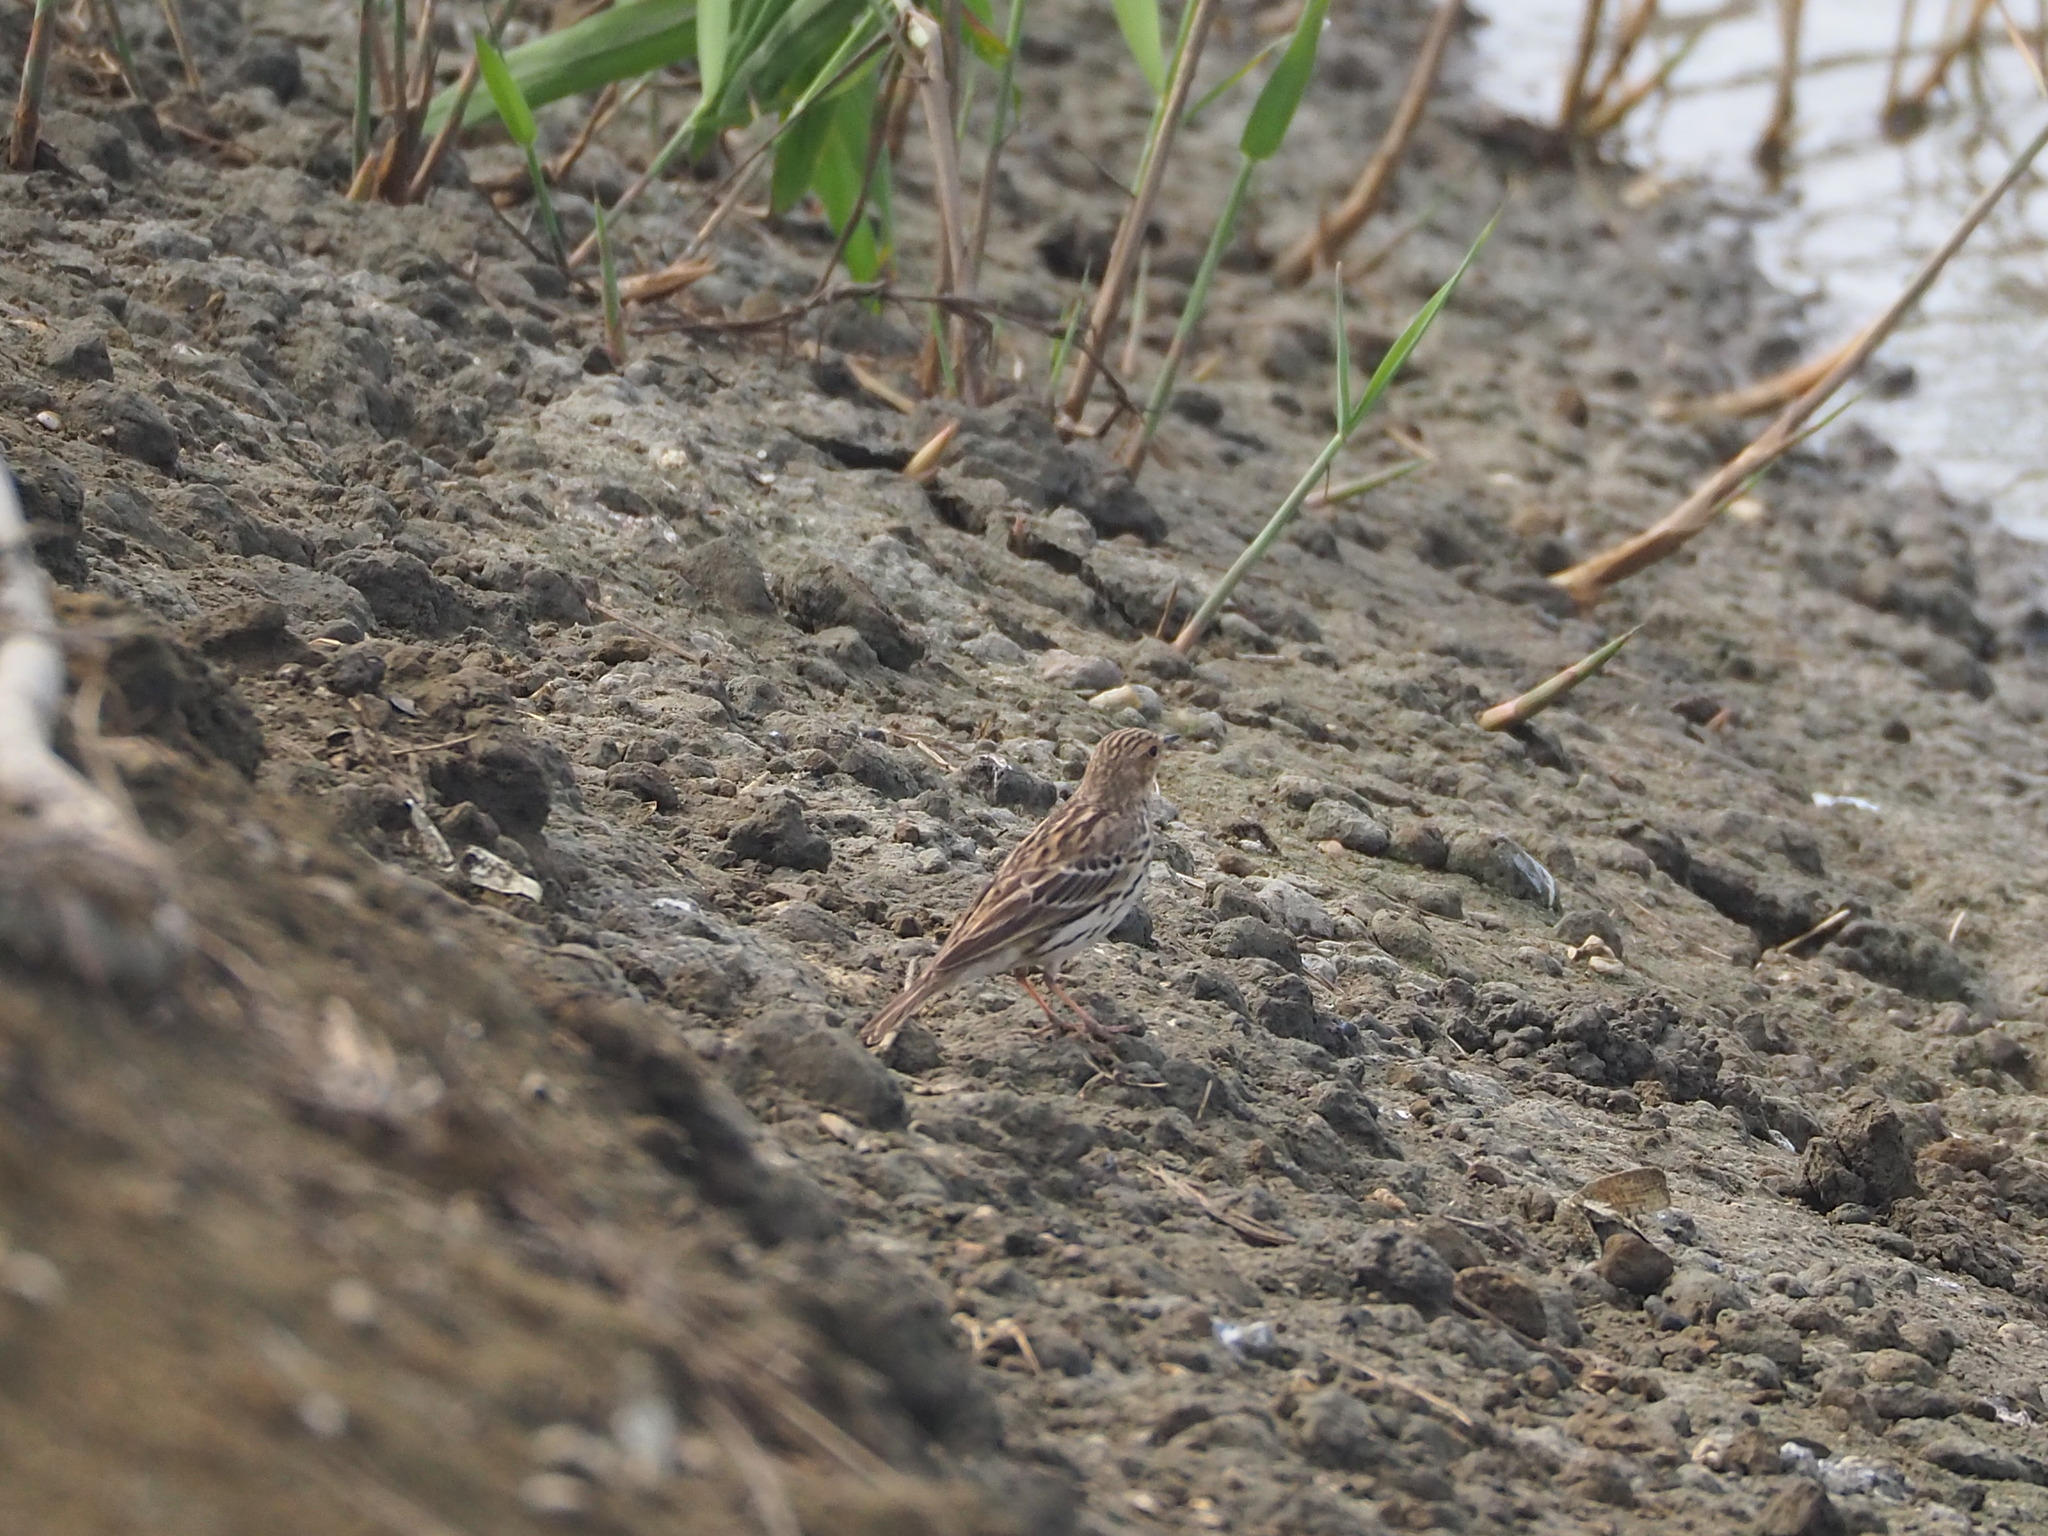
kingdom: Animalia
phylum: Chordata
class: Aves
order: Passeriformes
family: Motacillidae
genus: Anthus
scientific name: Anthus cervinus
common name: Red-throated pipit
